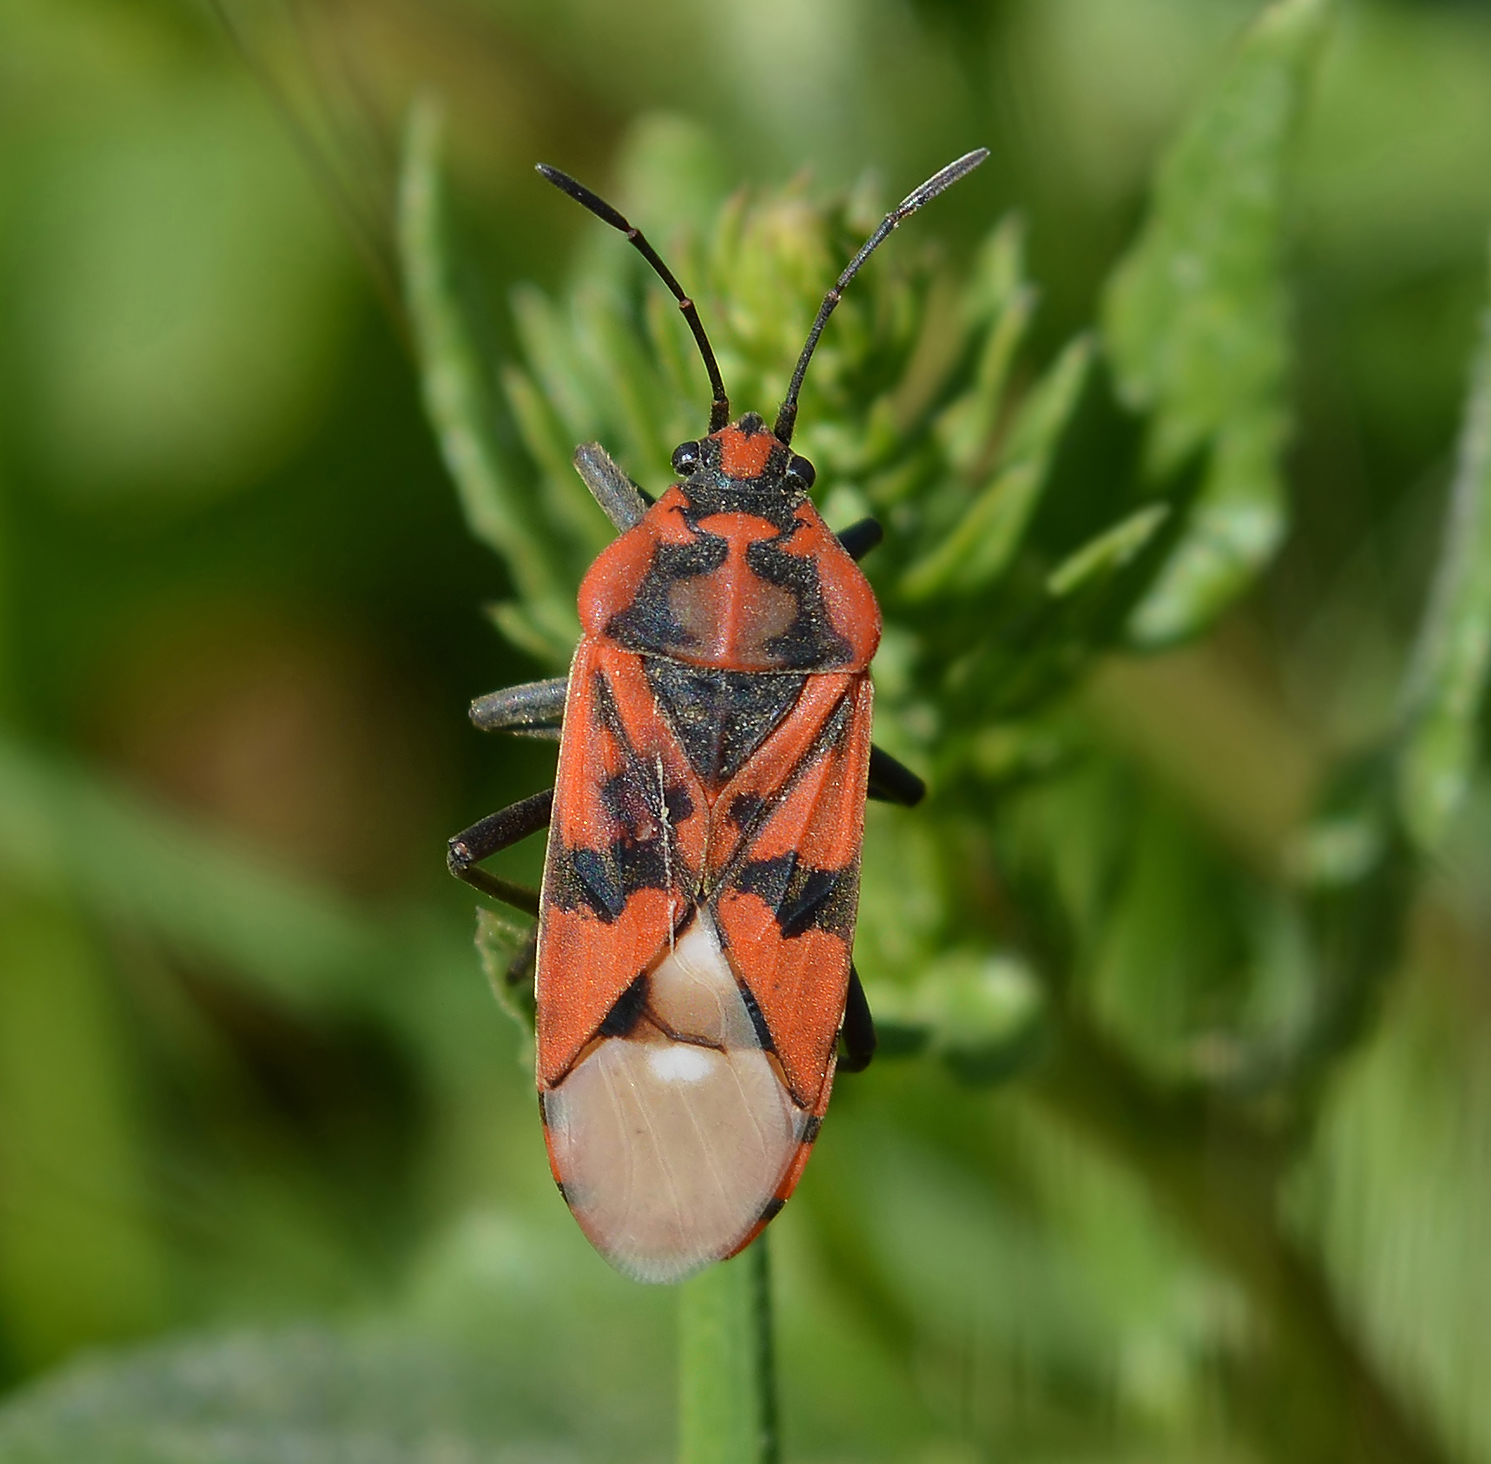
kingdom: Animalia
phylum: Arthropoda
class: Insecta
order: Hemiptera
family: Lygaeidae
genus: Spilostethus
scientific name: Spilostethus pandurus
